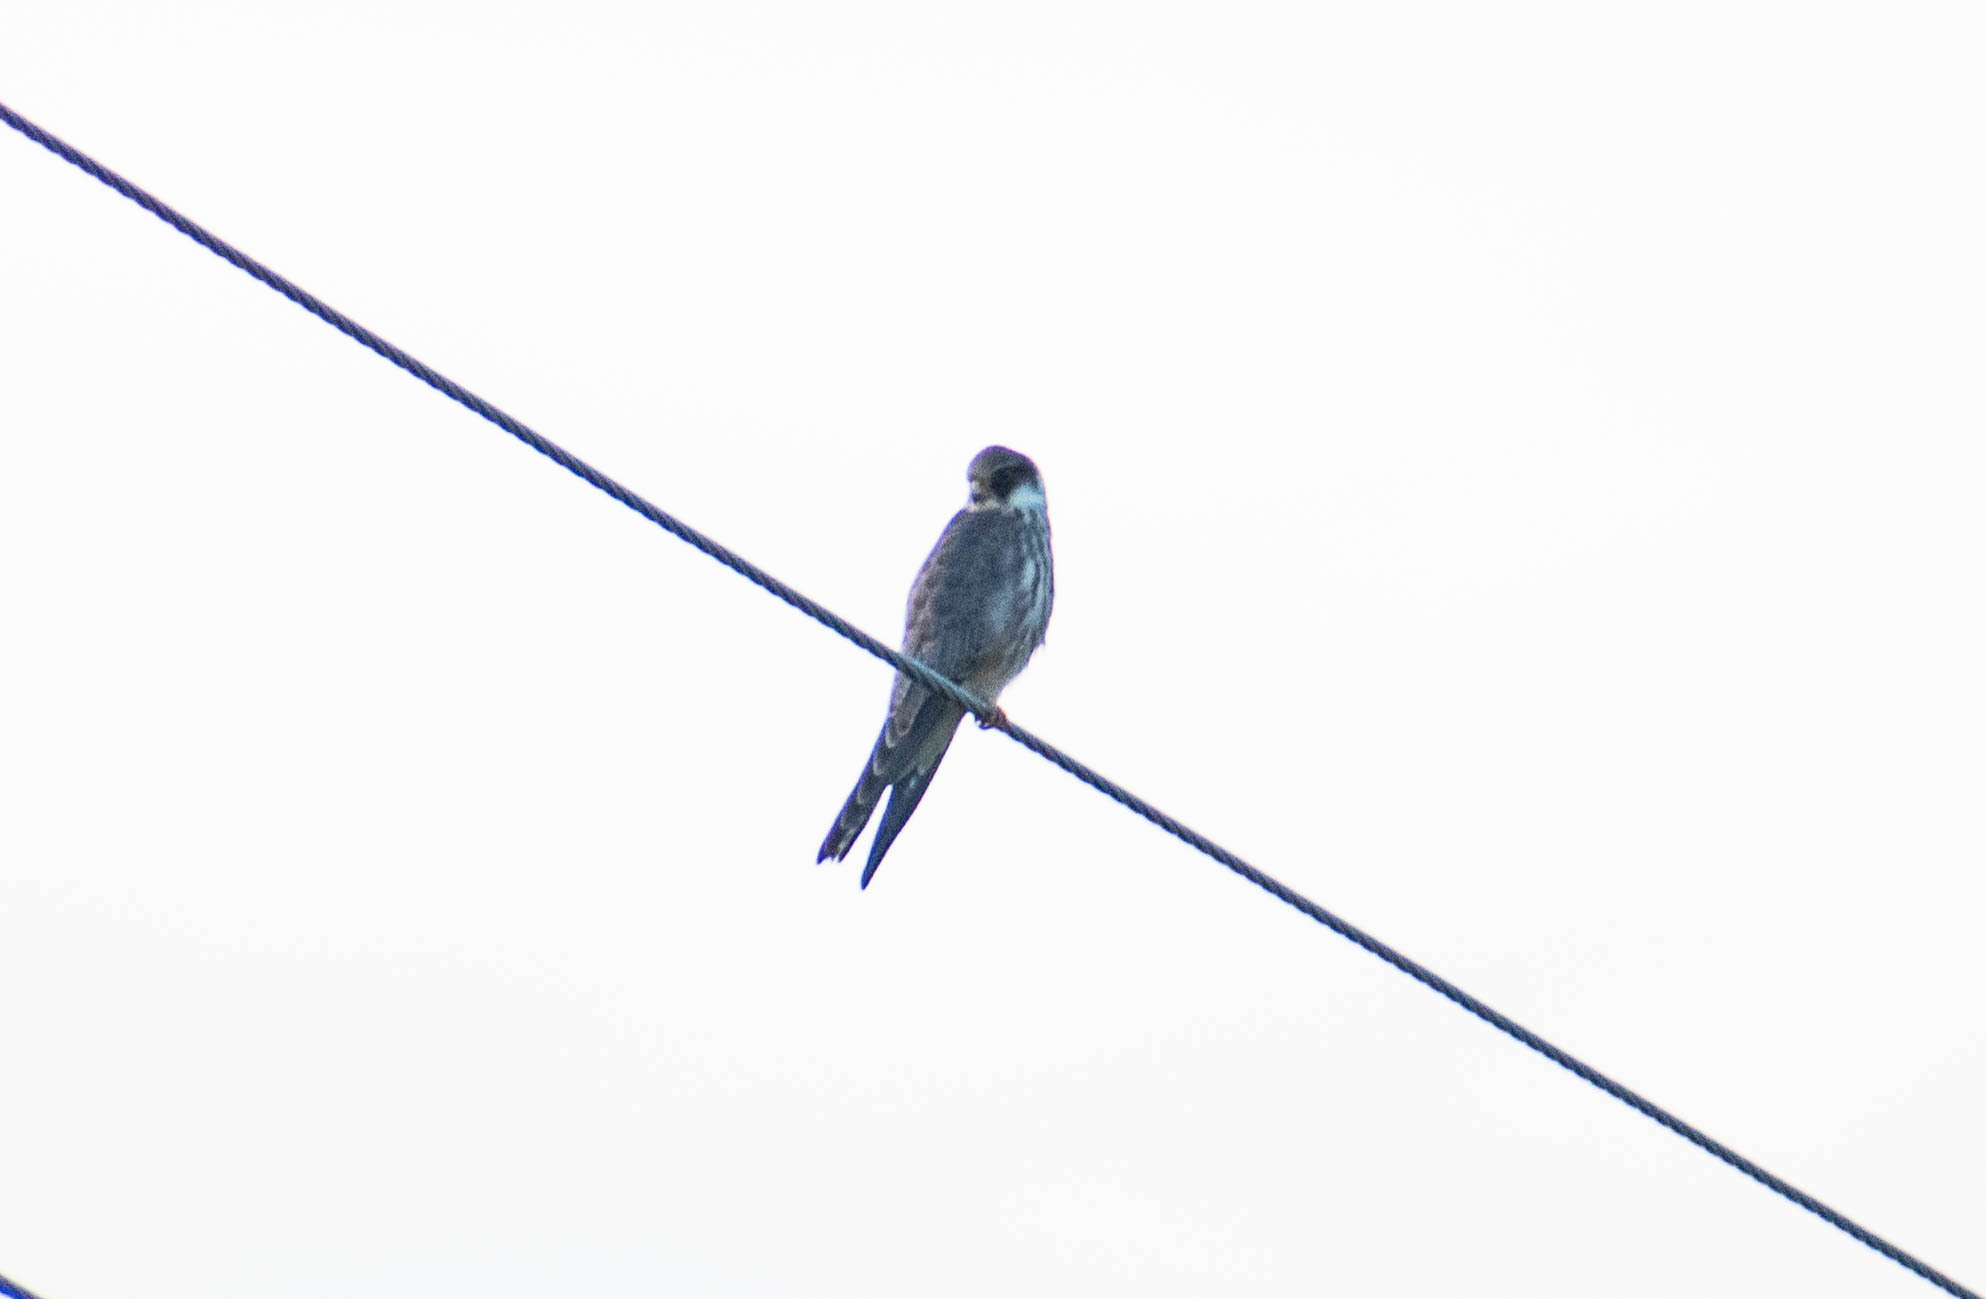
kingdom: Animalia
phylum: Chordata
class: Aves
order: Falconiformes
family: Falconidae
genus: Falco
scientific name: Falco vespertinus
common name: Red-footed falcon
